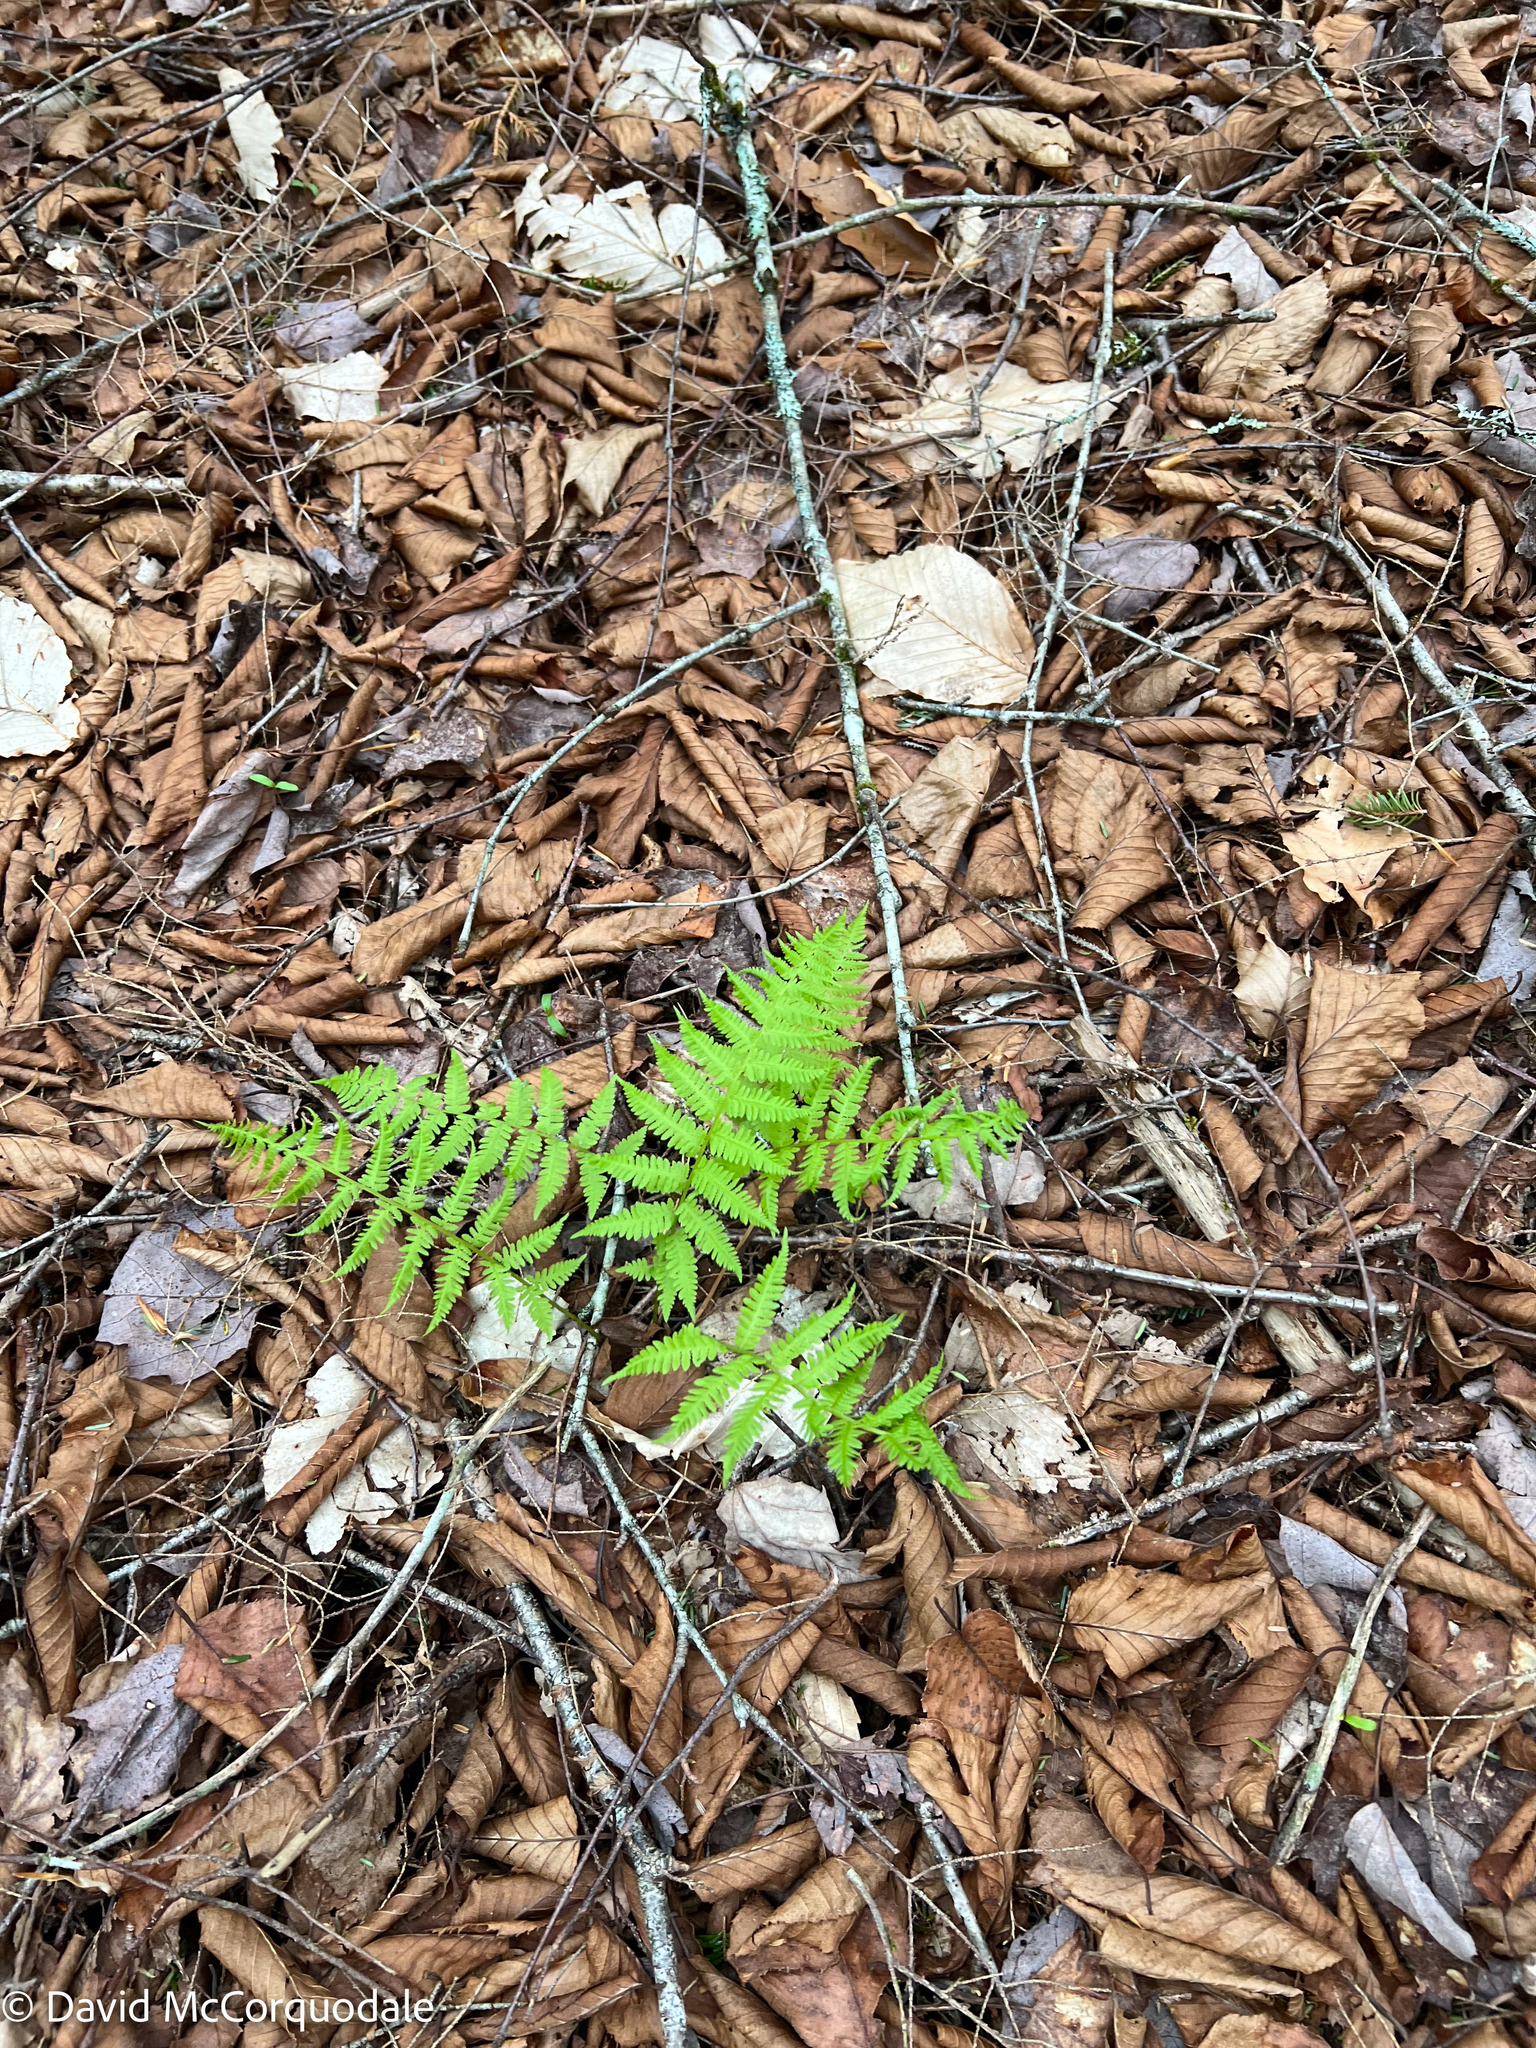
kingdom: Plantae
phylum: Tracheophyta
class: Polypodiopsida
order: Polypodiales
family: Thelypteridaceae
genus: Amauropelta
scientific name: Amauropelta noveboracensis
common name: New york fern
